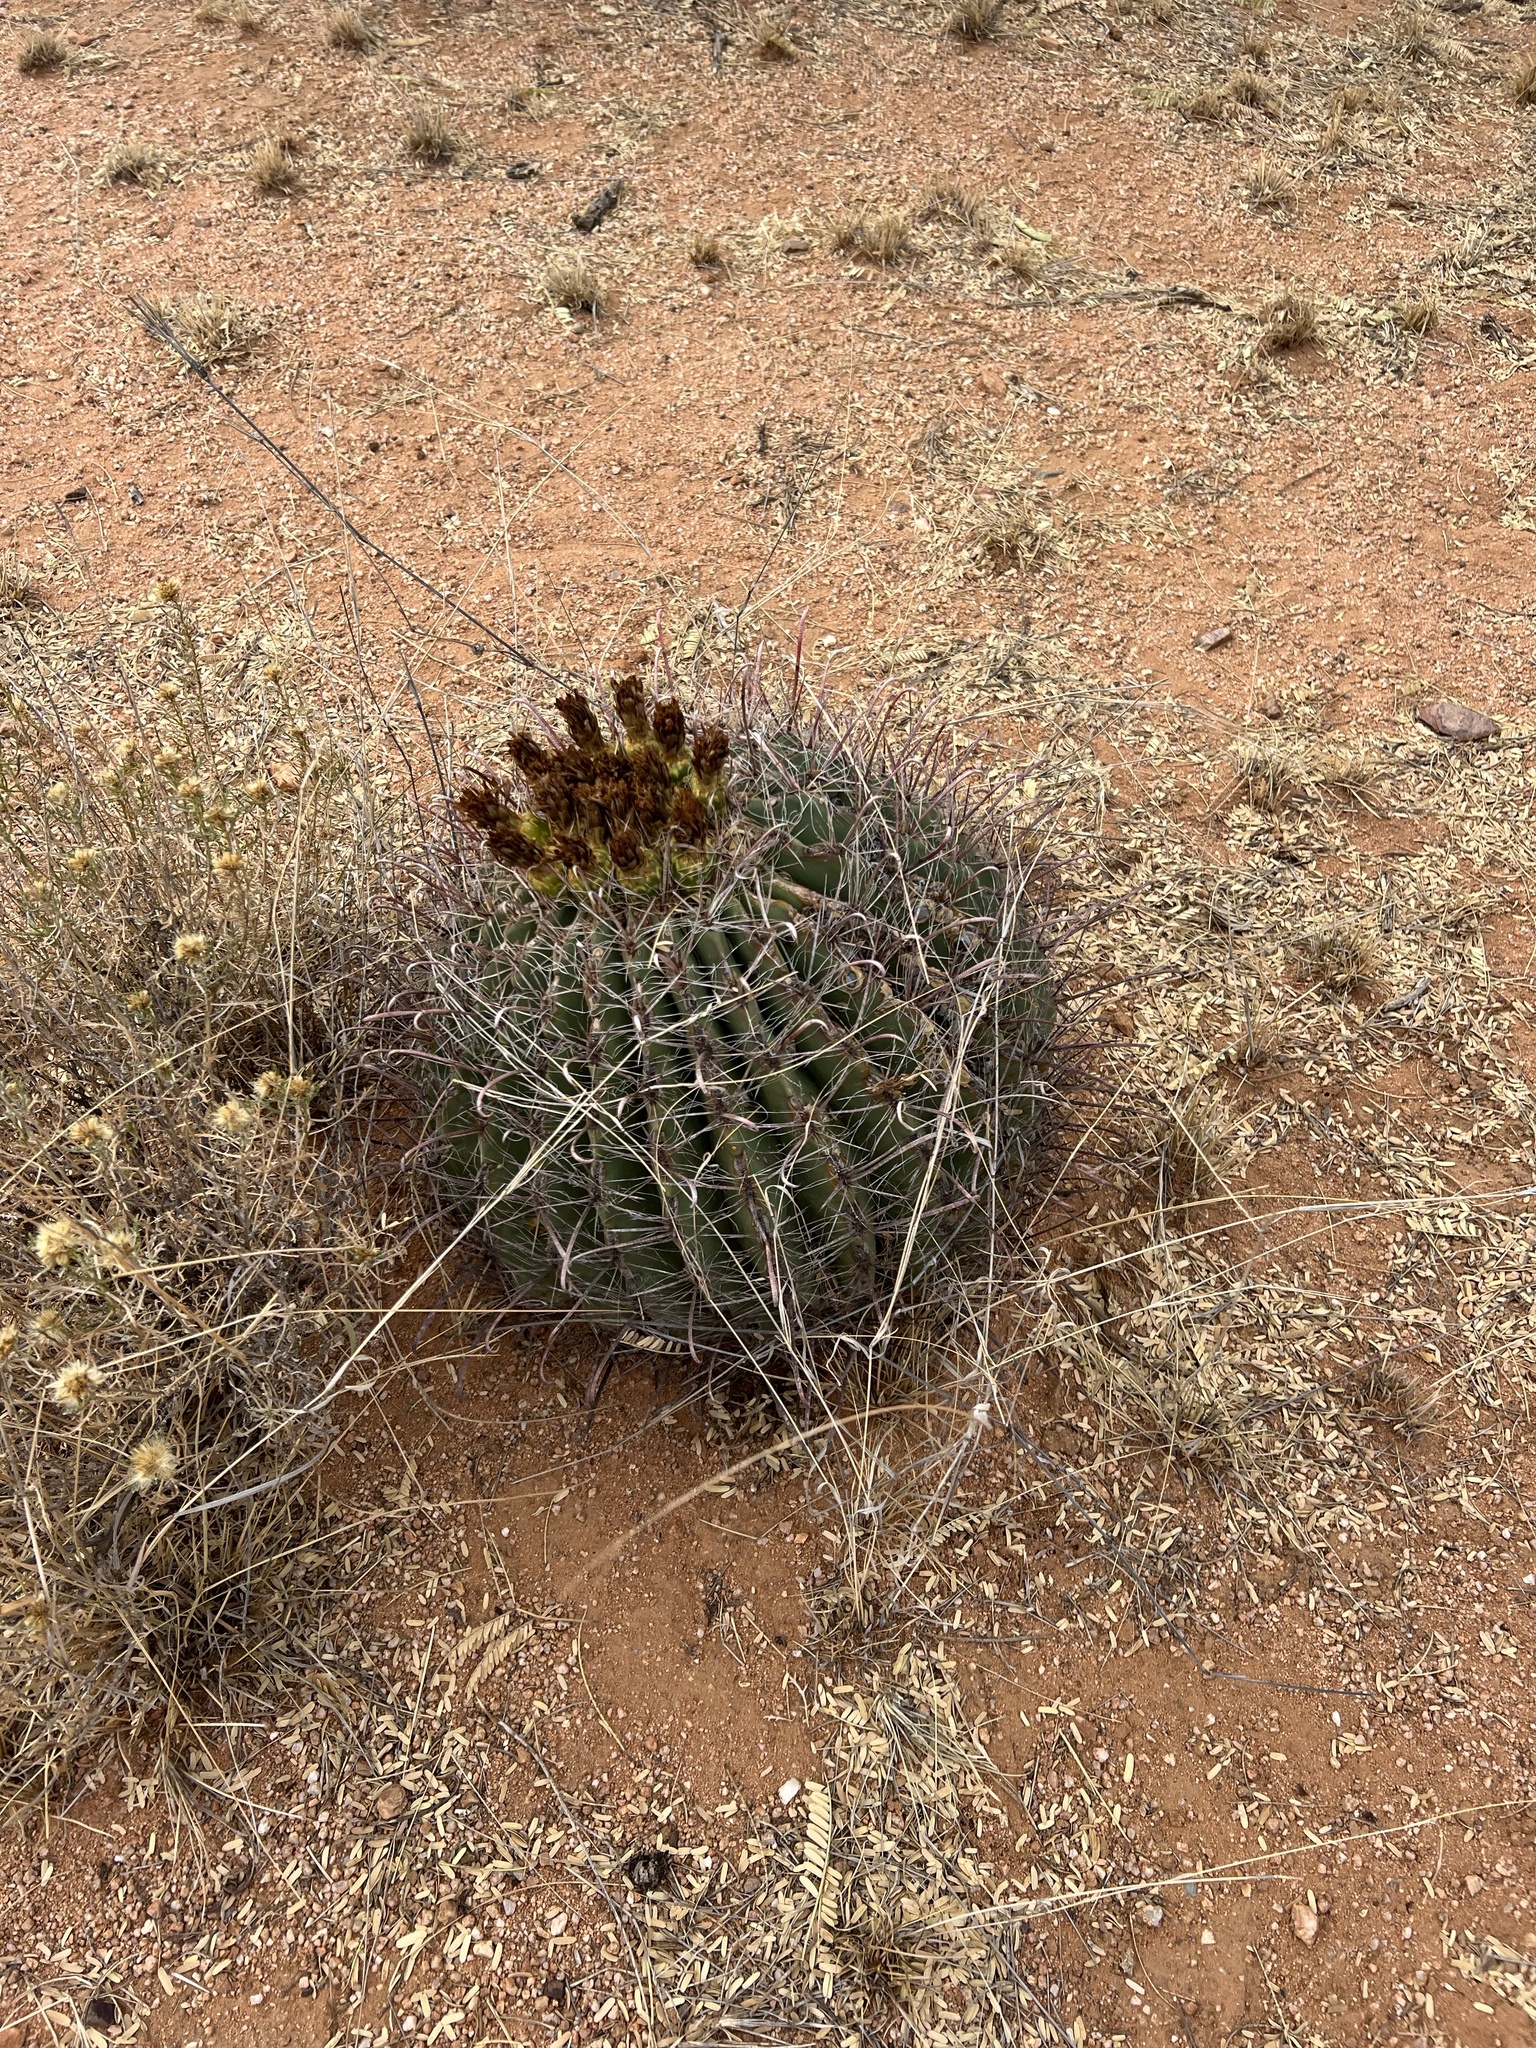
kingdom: Plantae
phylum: Tracheophyta
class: Magnoliopsida
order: Caryophyllales
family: Cactaceae
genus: Ferocactus
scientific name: Ferocactus wislizeni
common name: Candy barrel cactus
